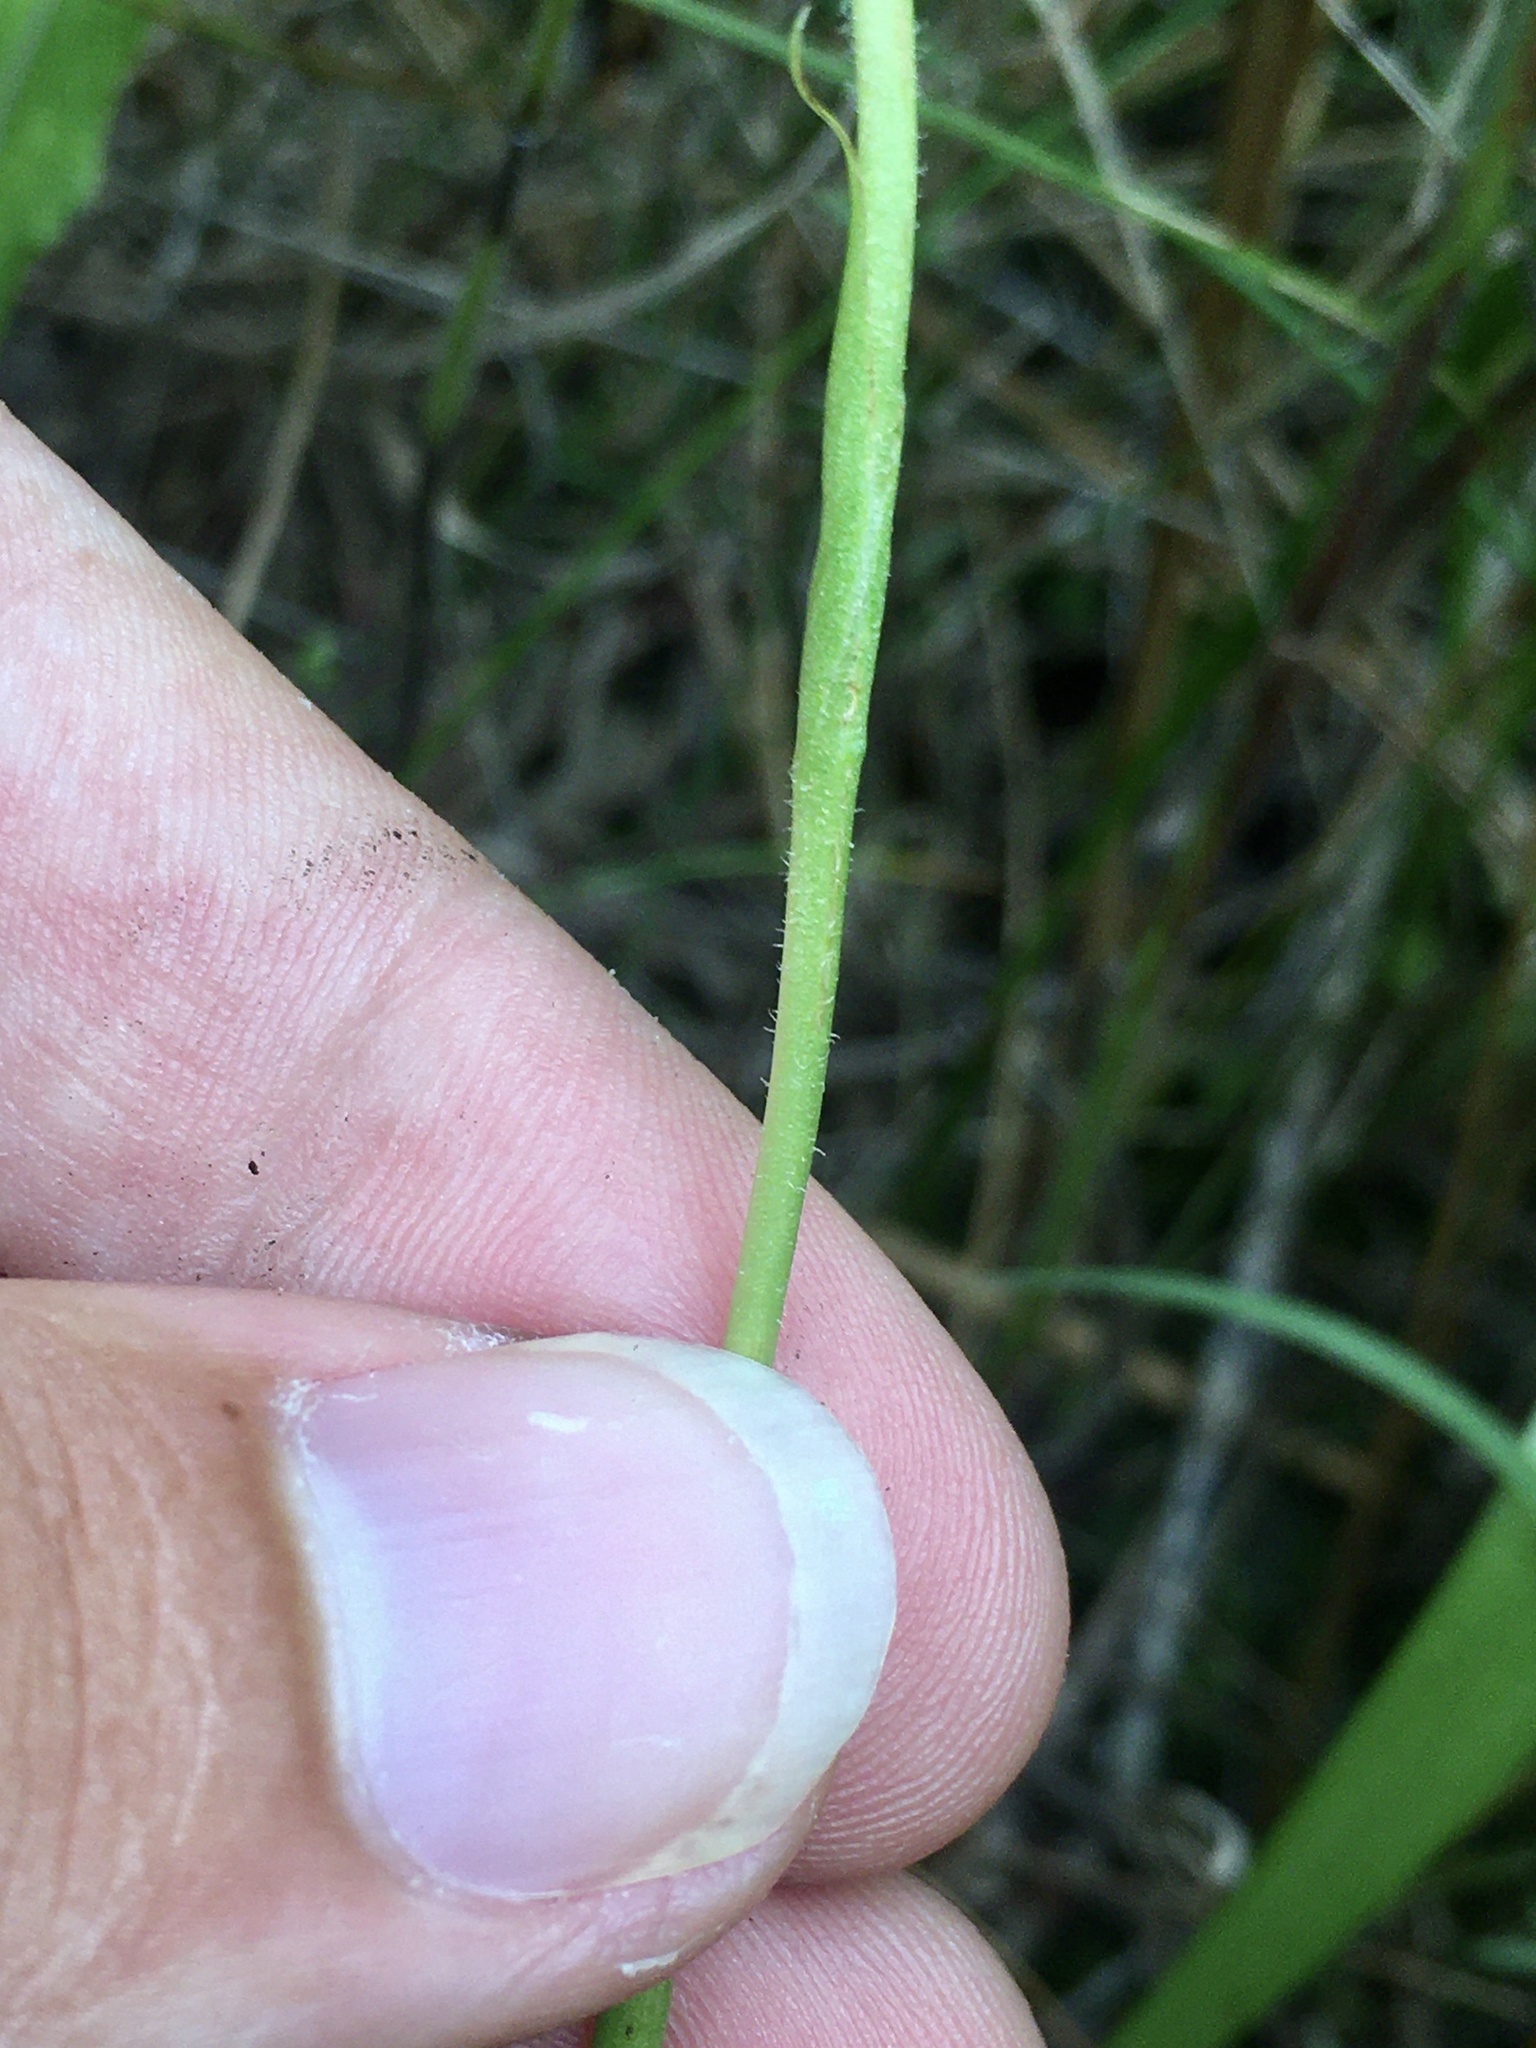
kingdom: Plantae
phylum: Tracheophyta
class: Liliopsida
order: Asparagales
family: Orchidaceae
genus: Spiranthes
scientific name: Spiranthes incurva
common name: Sphinx ladies'-tresses
